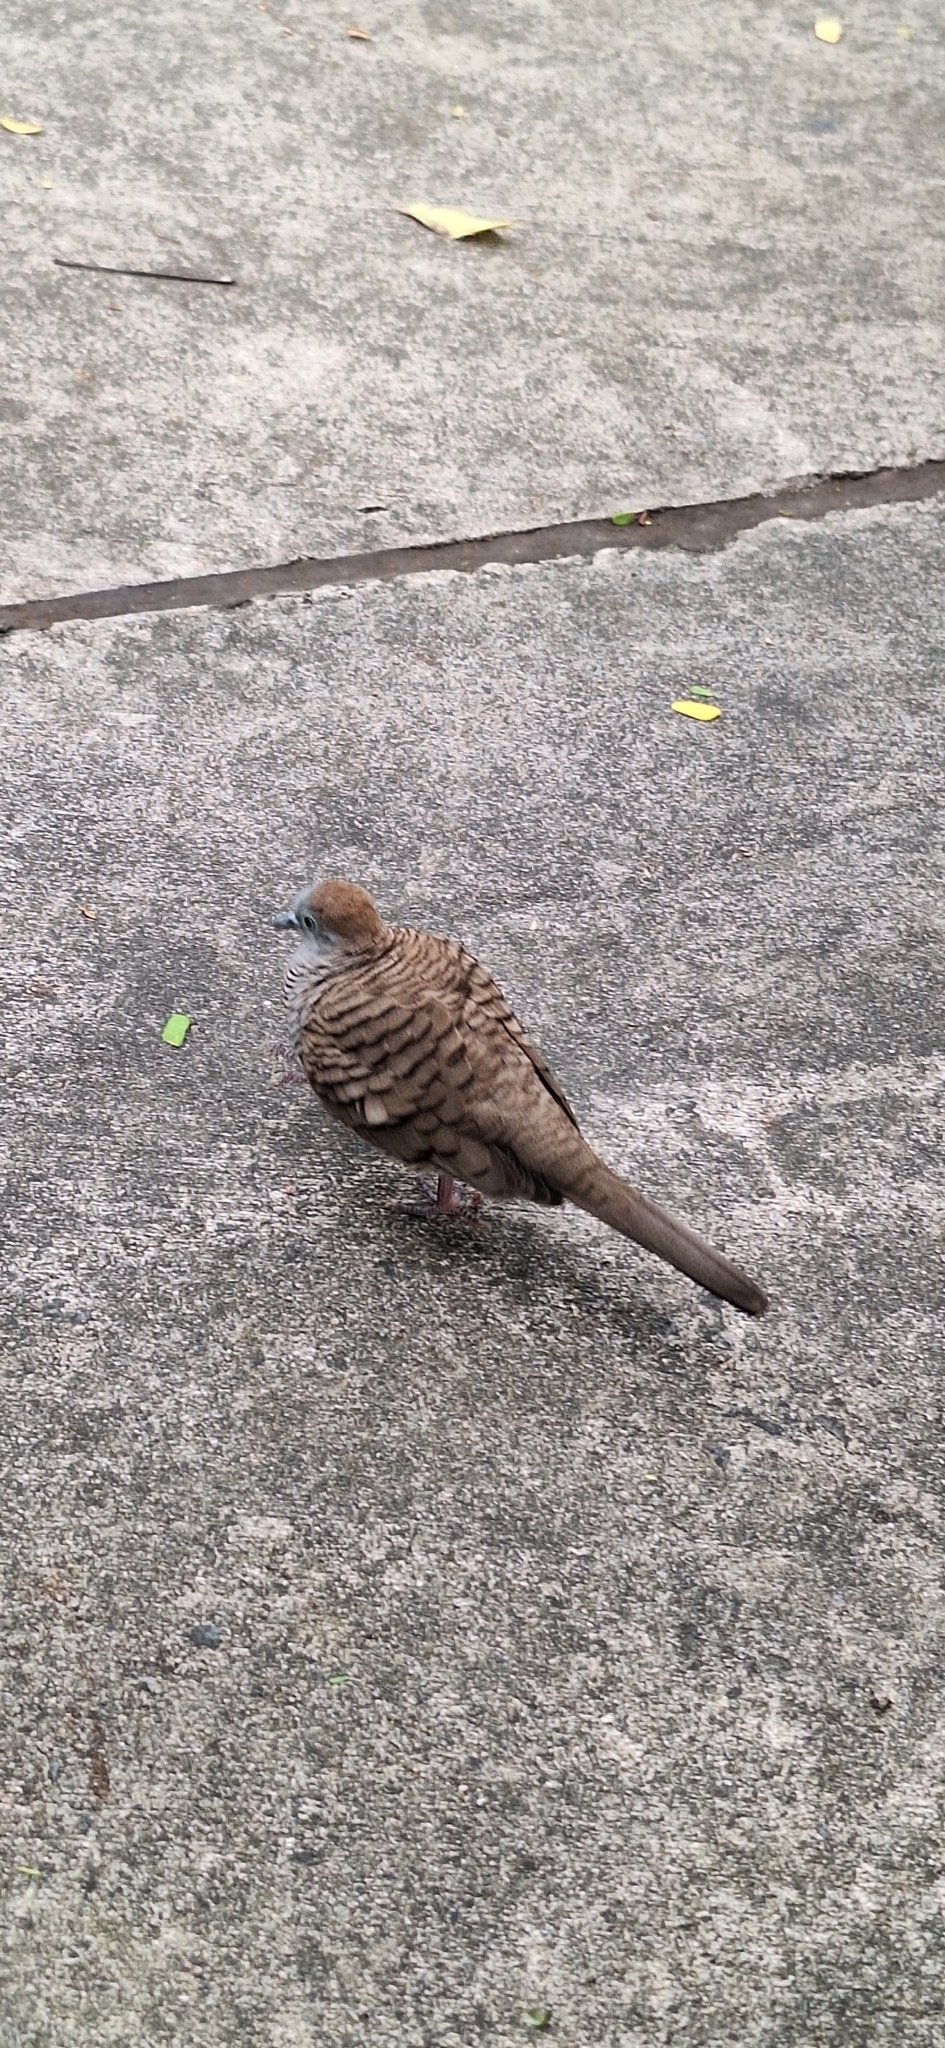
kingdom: Animalia
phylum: Chordata
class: Aves
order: Columbiformes
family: Columbidae
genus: Geopelia
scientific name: Geopelia striata
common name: Zebra dove
